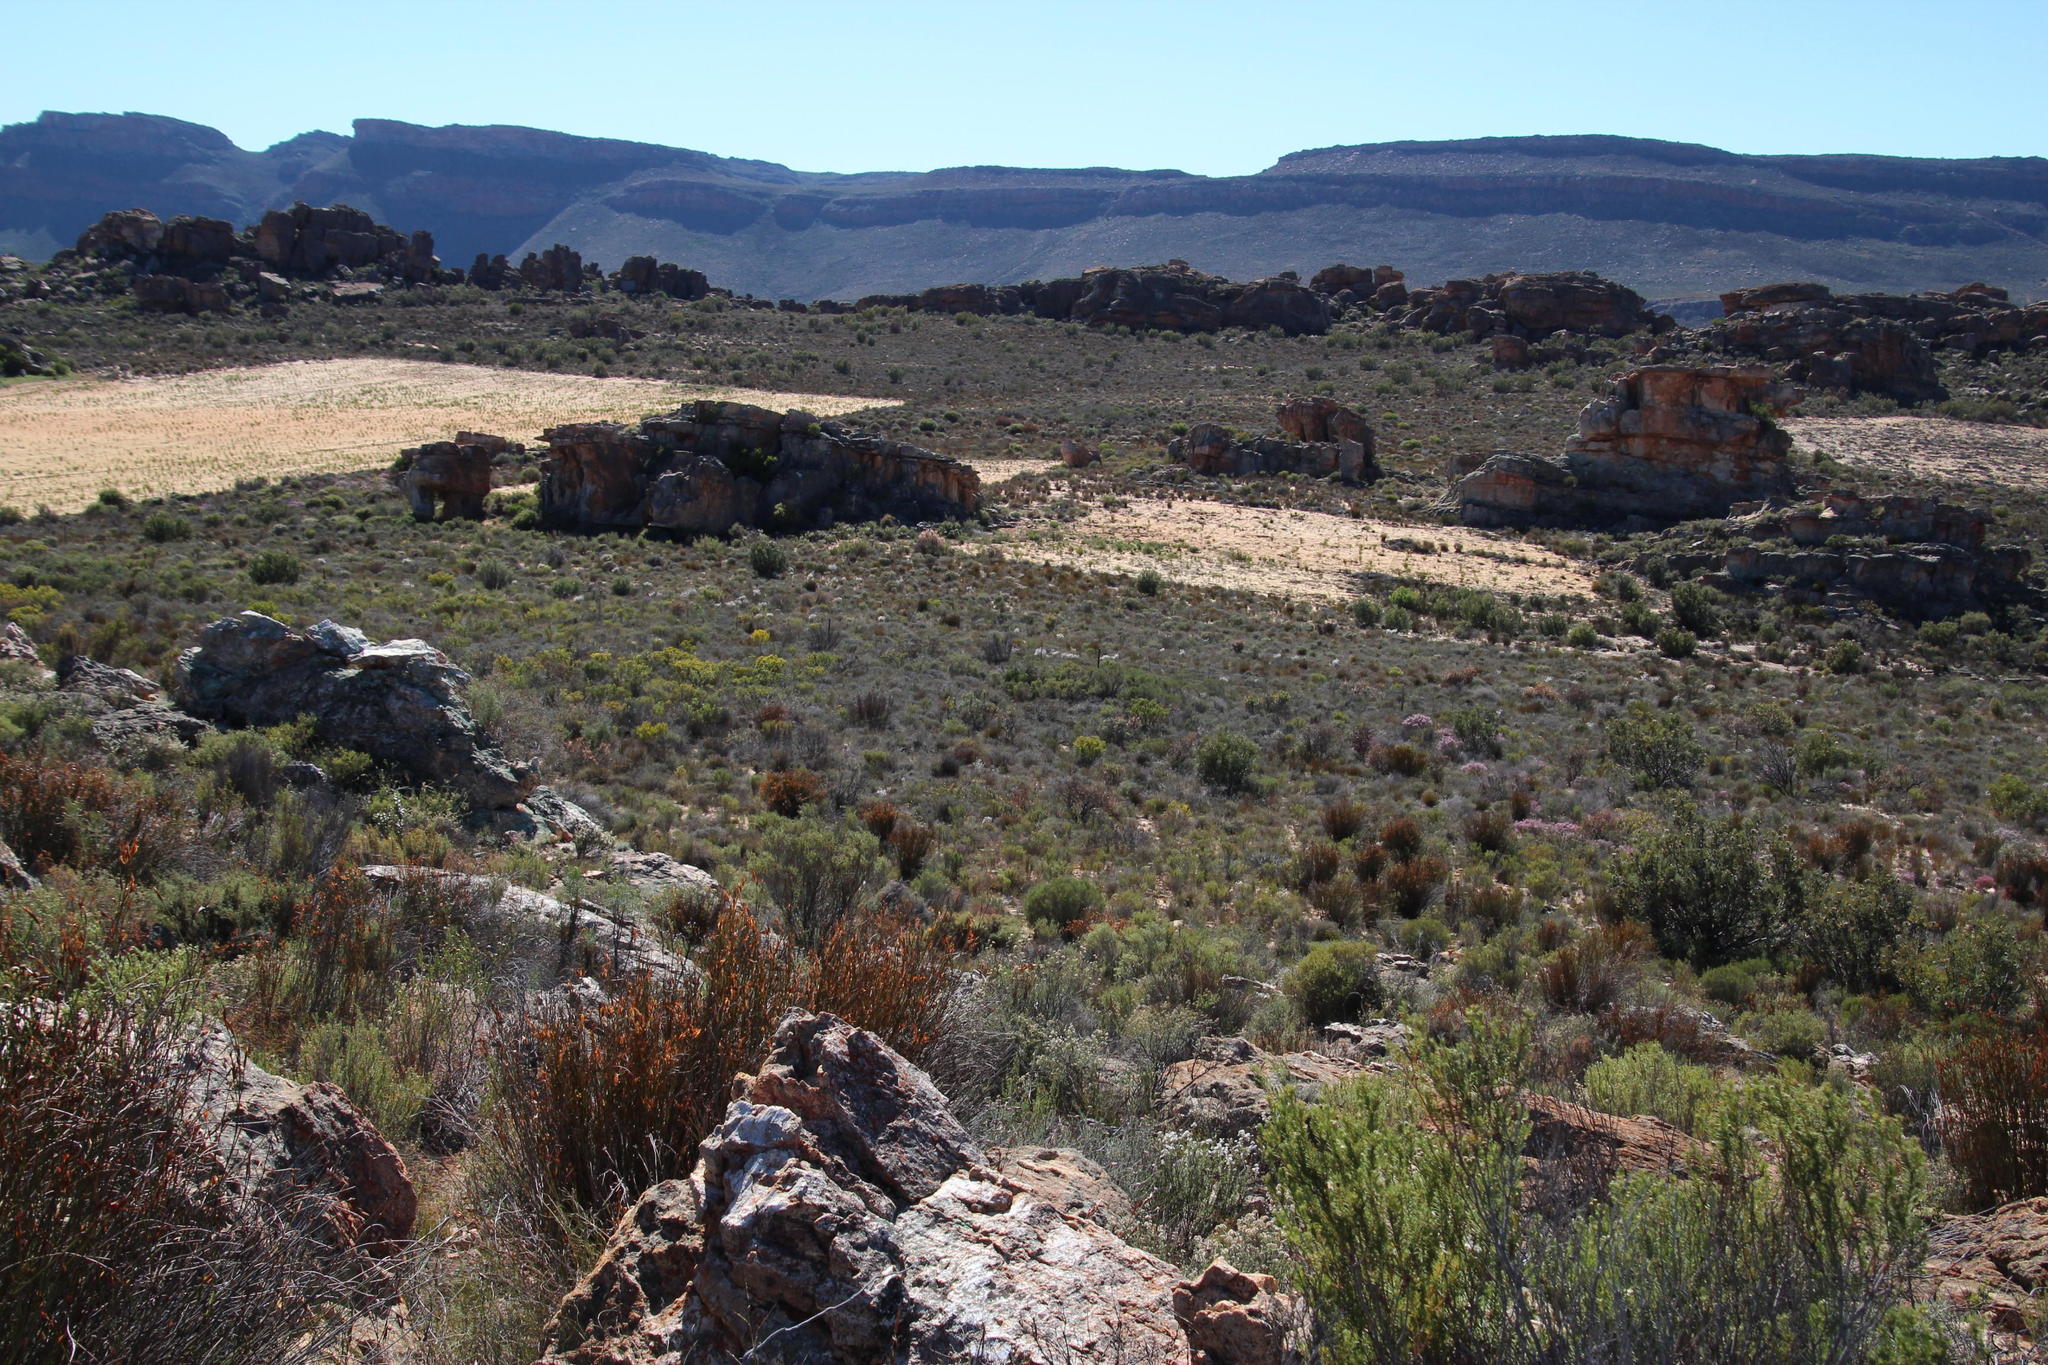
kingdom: Plantae
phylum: Tracheophyta
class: Magnoliopsida
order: Fabales
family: Fabaceae
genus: Aspalathus
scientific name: Aspalathus linearis
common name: Rooibos-tea
